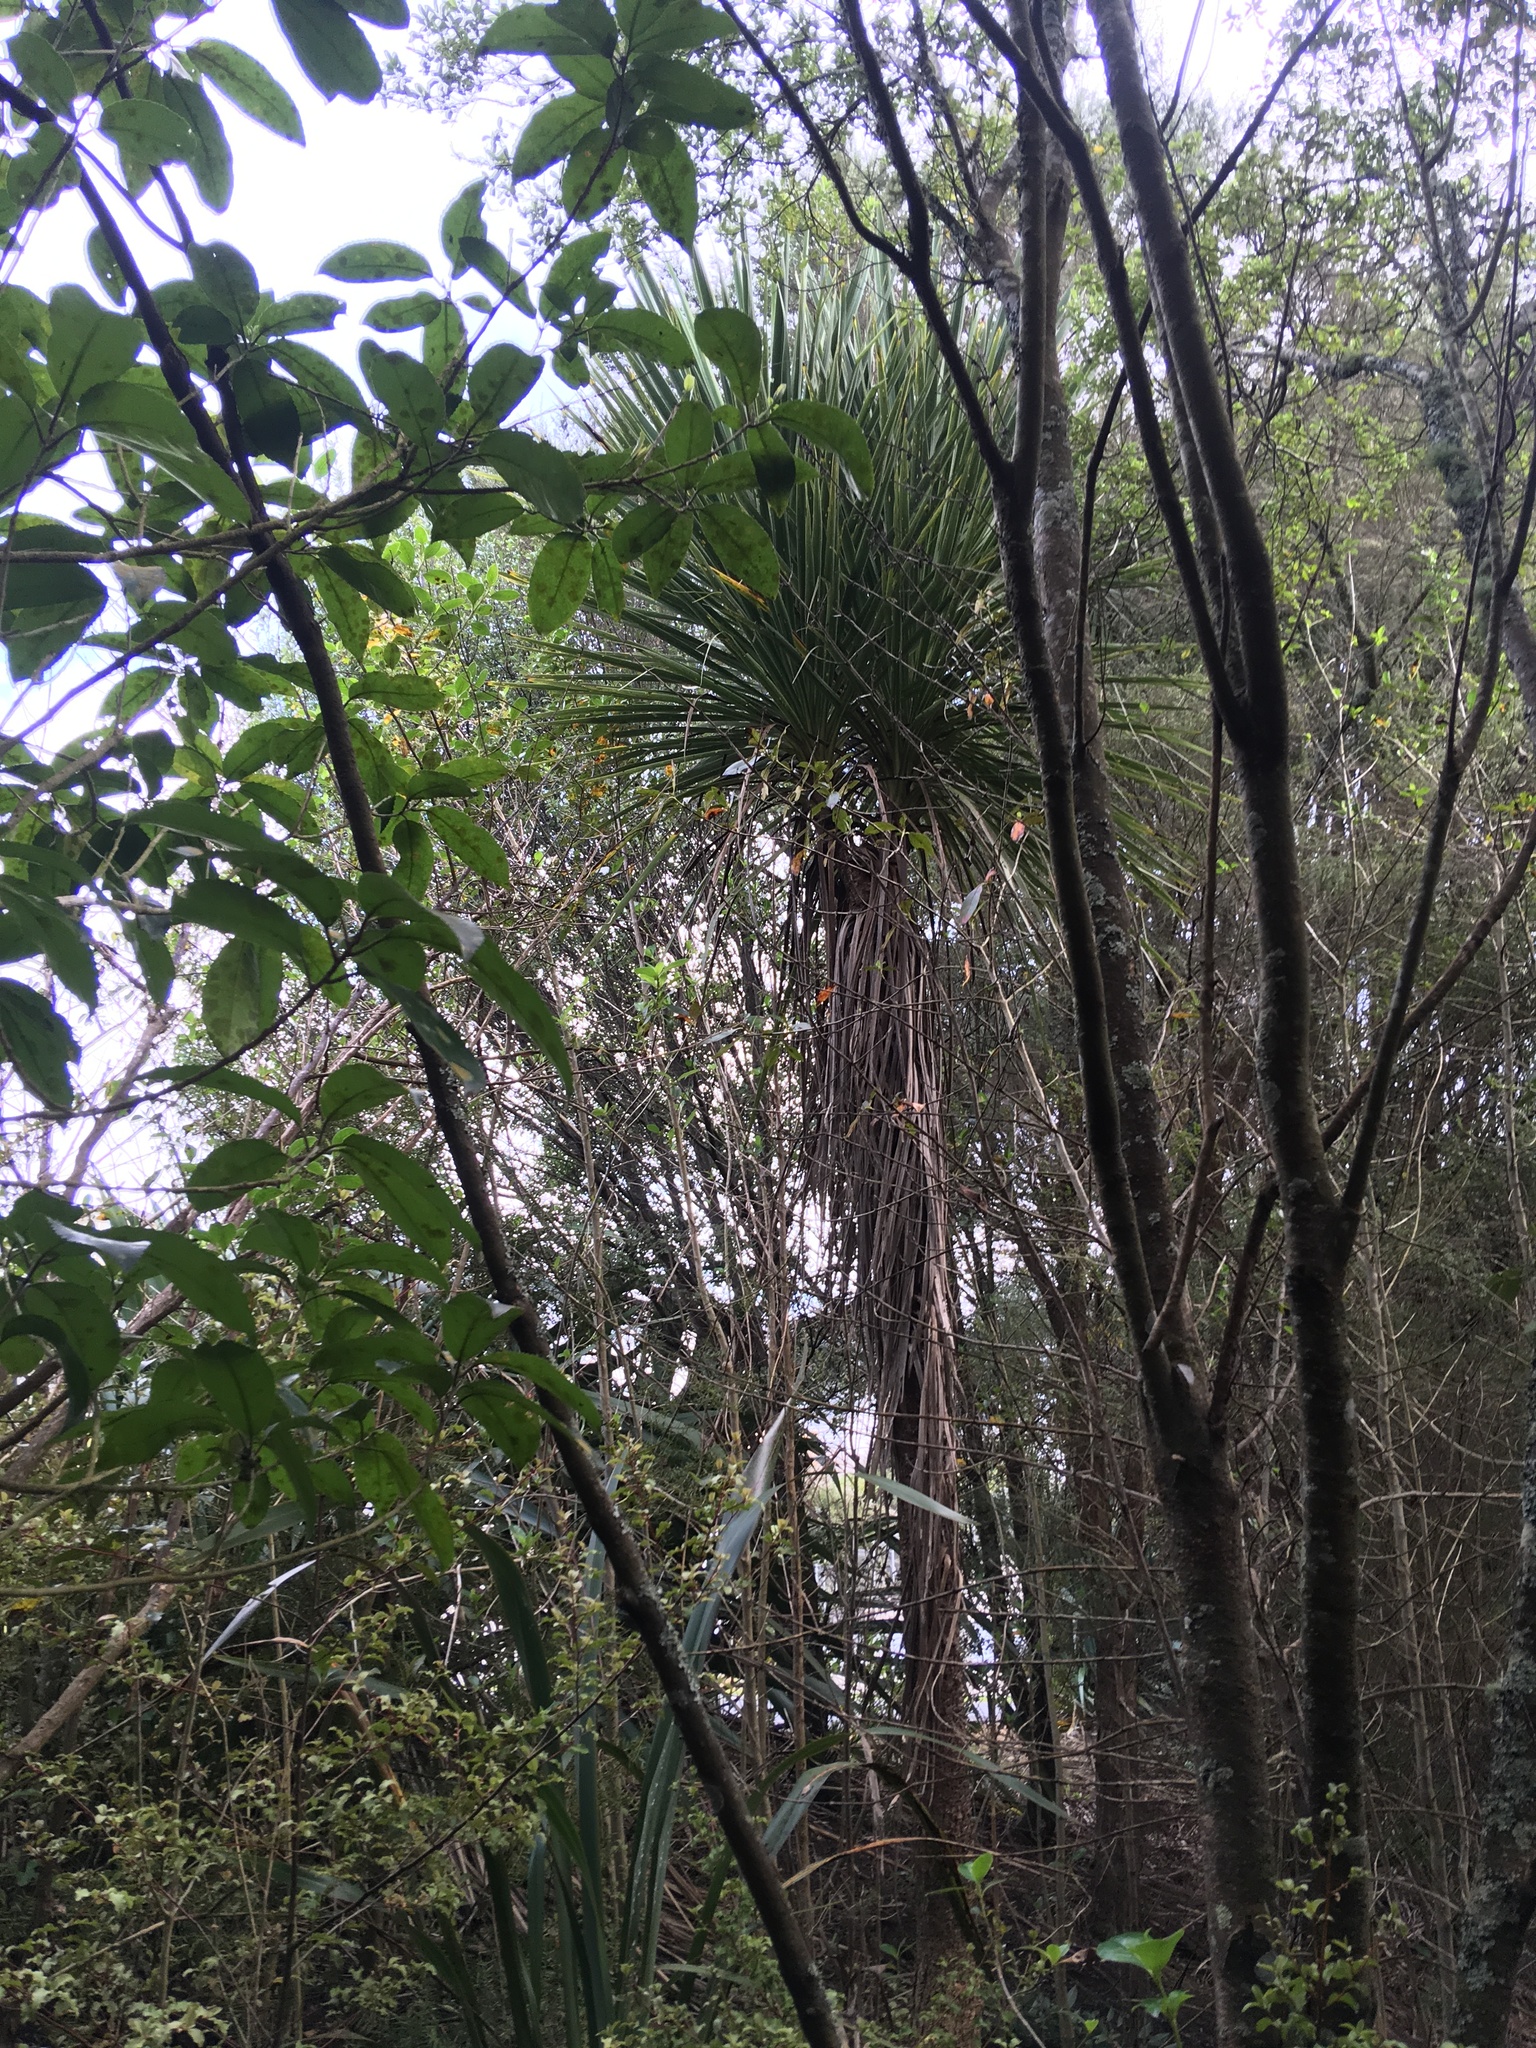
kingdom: Plantae
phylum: Tracheophyta
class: Liliopsida
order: Asparagales
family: Asparagaceae
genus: Cordyline
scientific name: Cordyline australis
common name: Cabbage-palm
